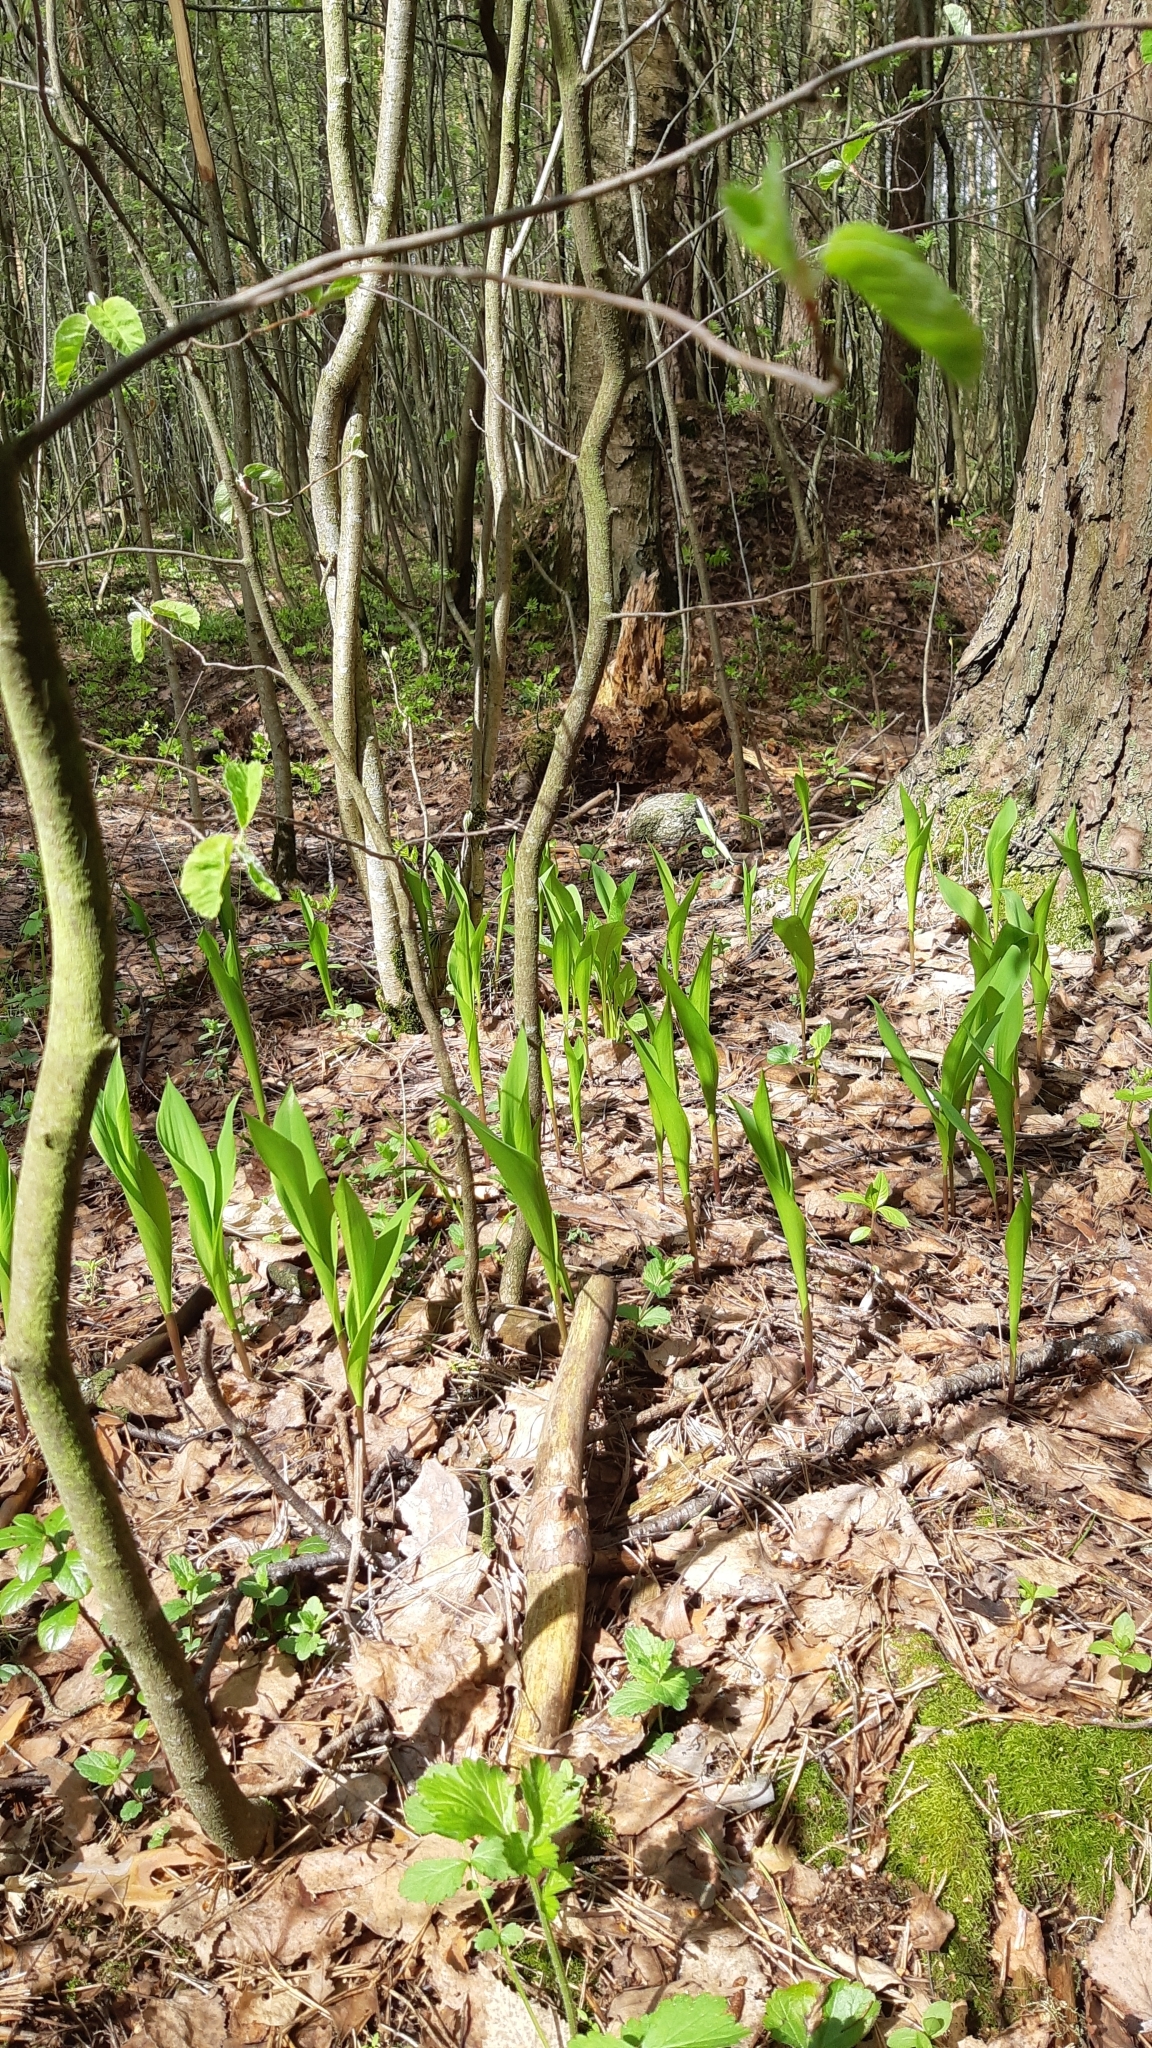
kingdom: Plantae
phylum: Tracheophyta
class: Liliopsida
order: Asparagales
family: Asparagaceae
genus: Convallaria
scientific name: Convallaria majalis
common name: Lily-of-the-valley
